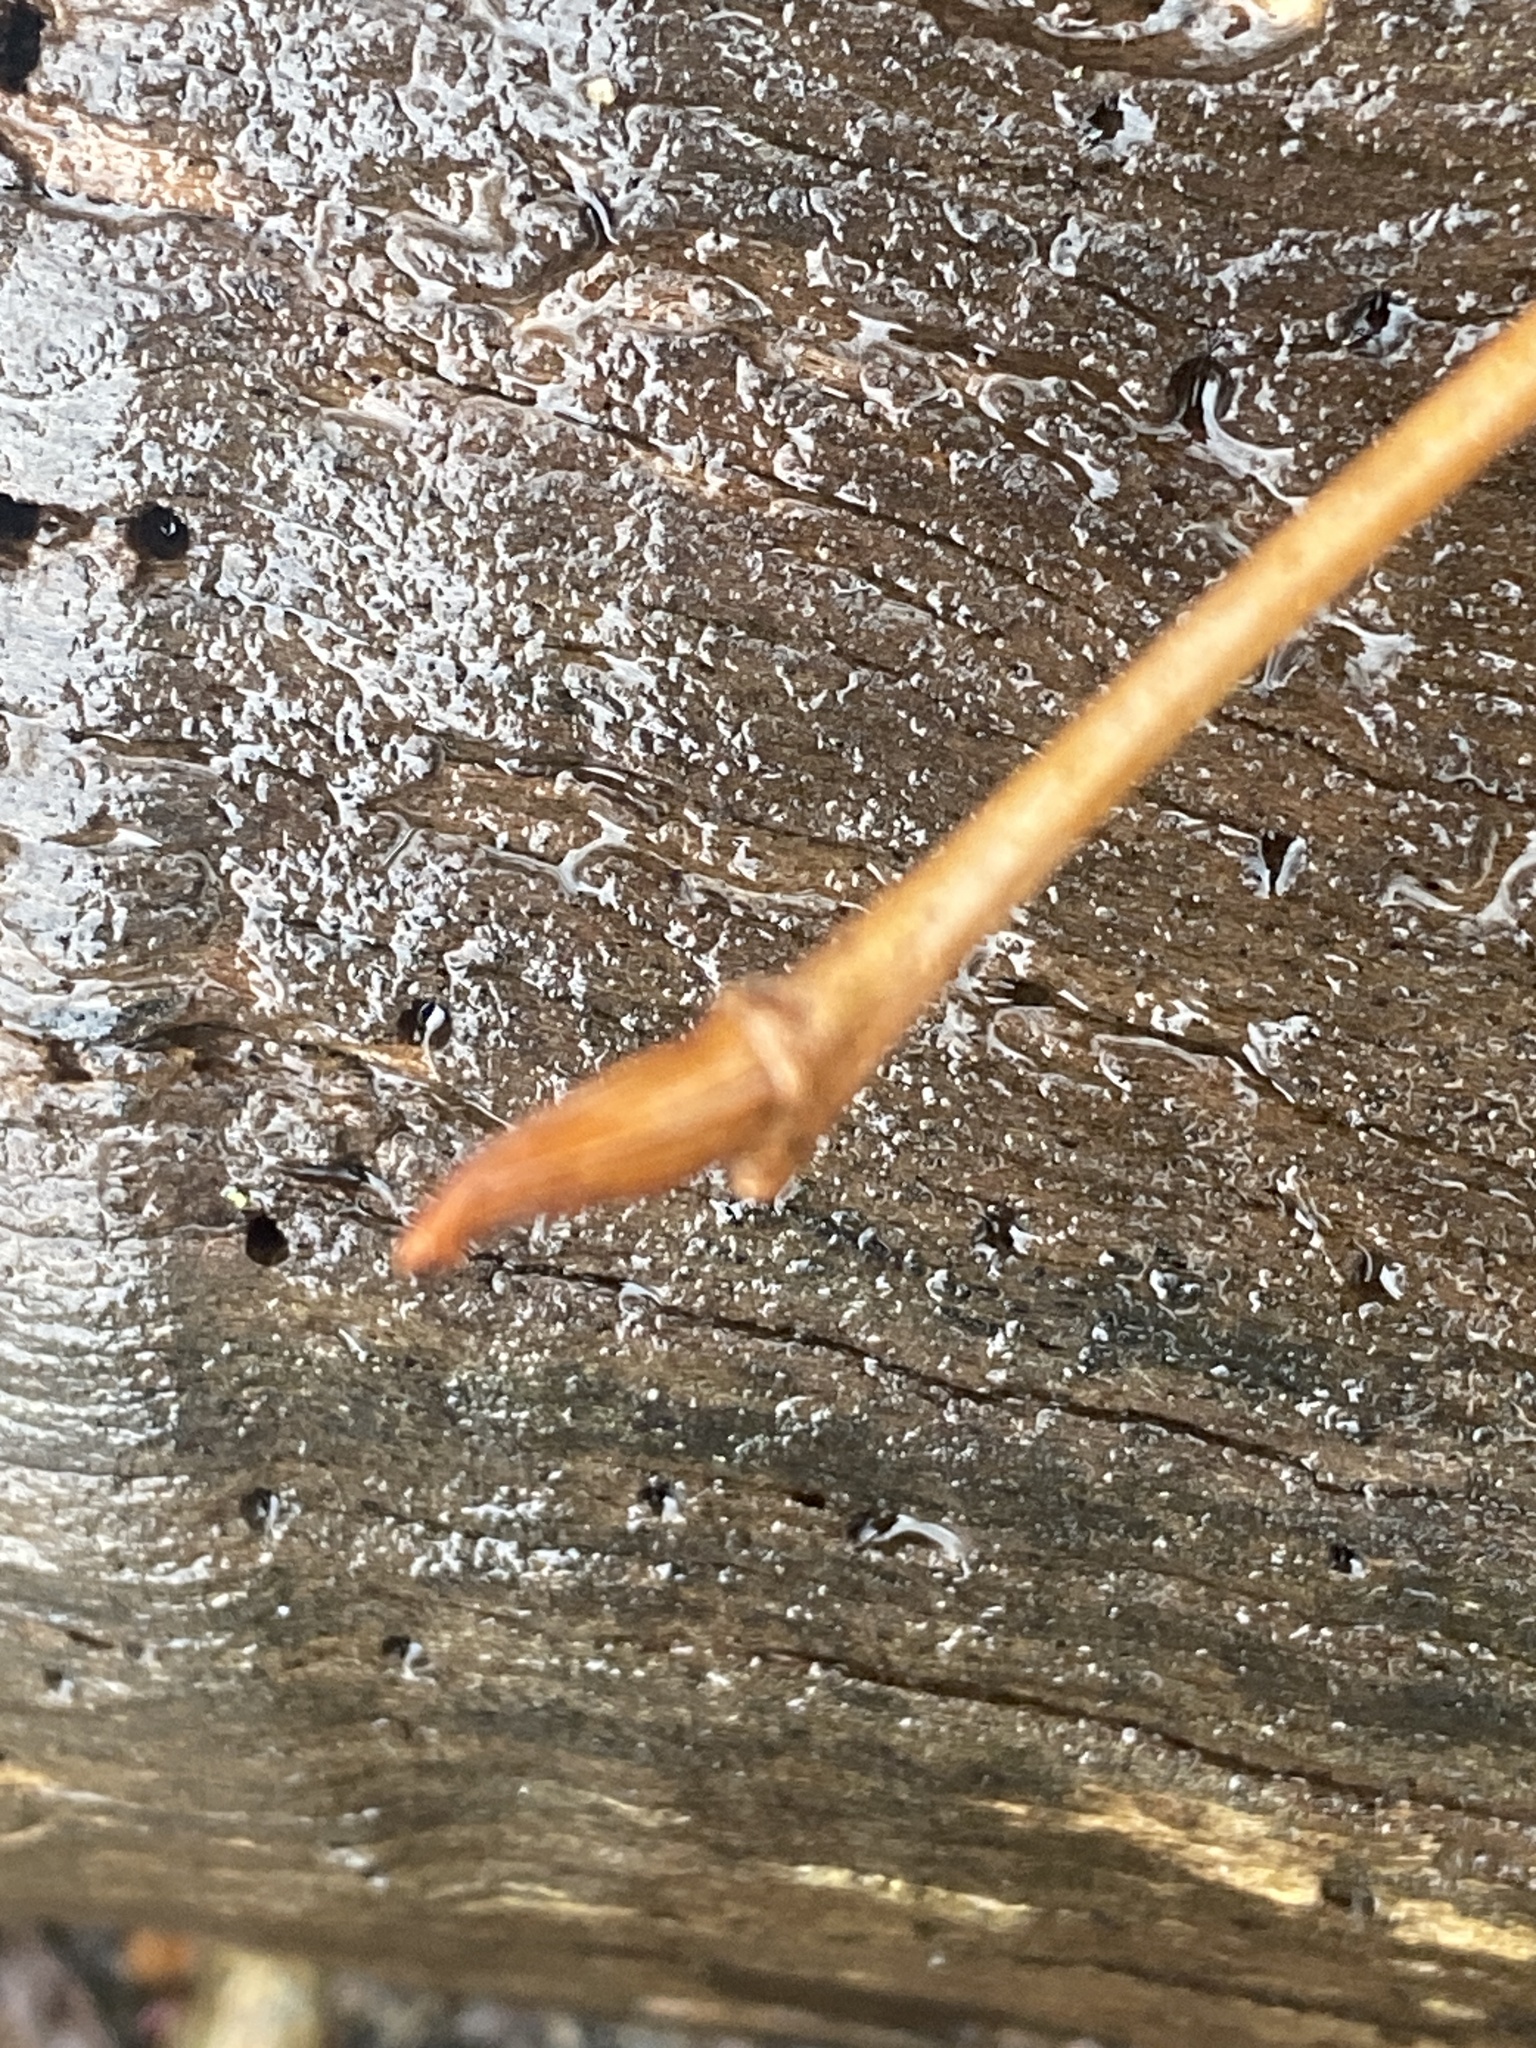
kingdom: Plantae
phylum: Tracheophyta
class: Magnoliopsida
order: Rosales
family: Ulmaceae
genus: Ulmus
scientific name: Ulmus americana
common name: American elm
